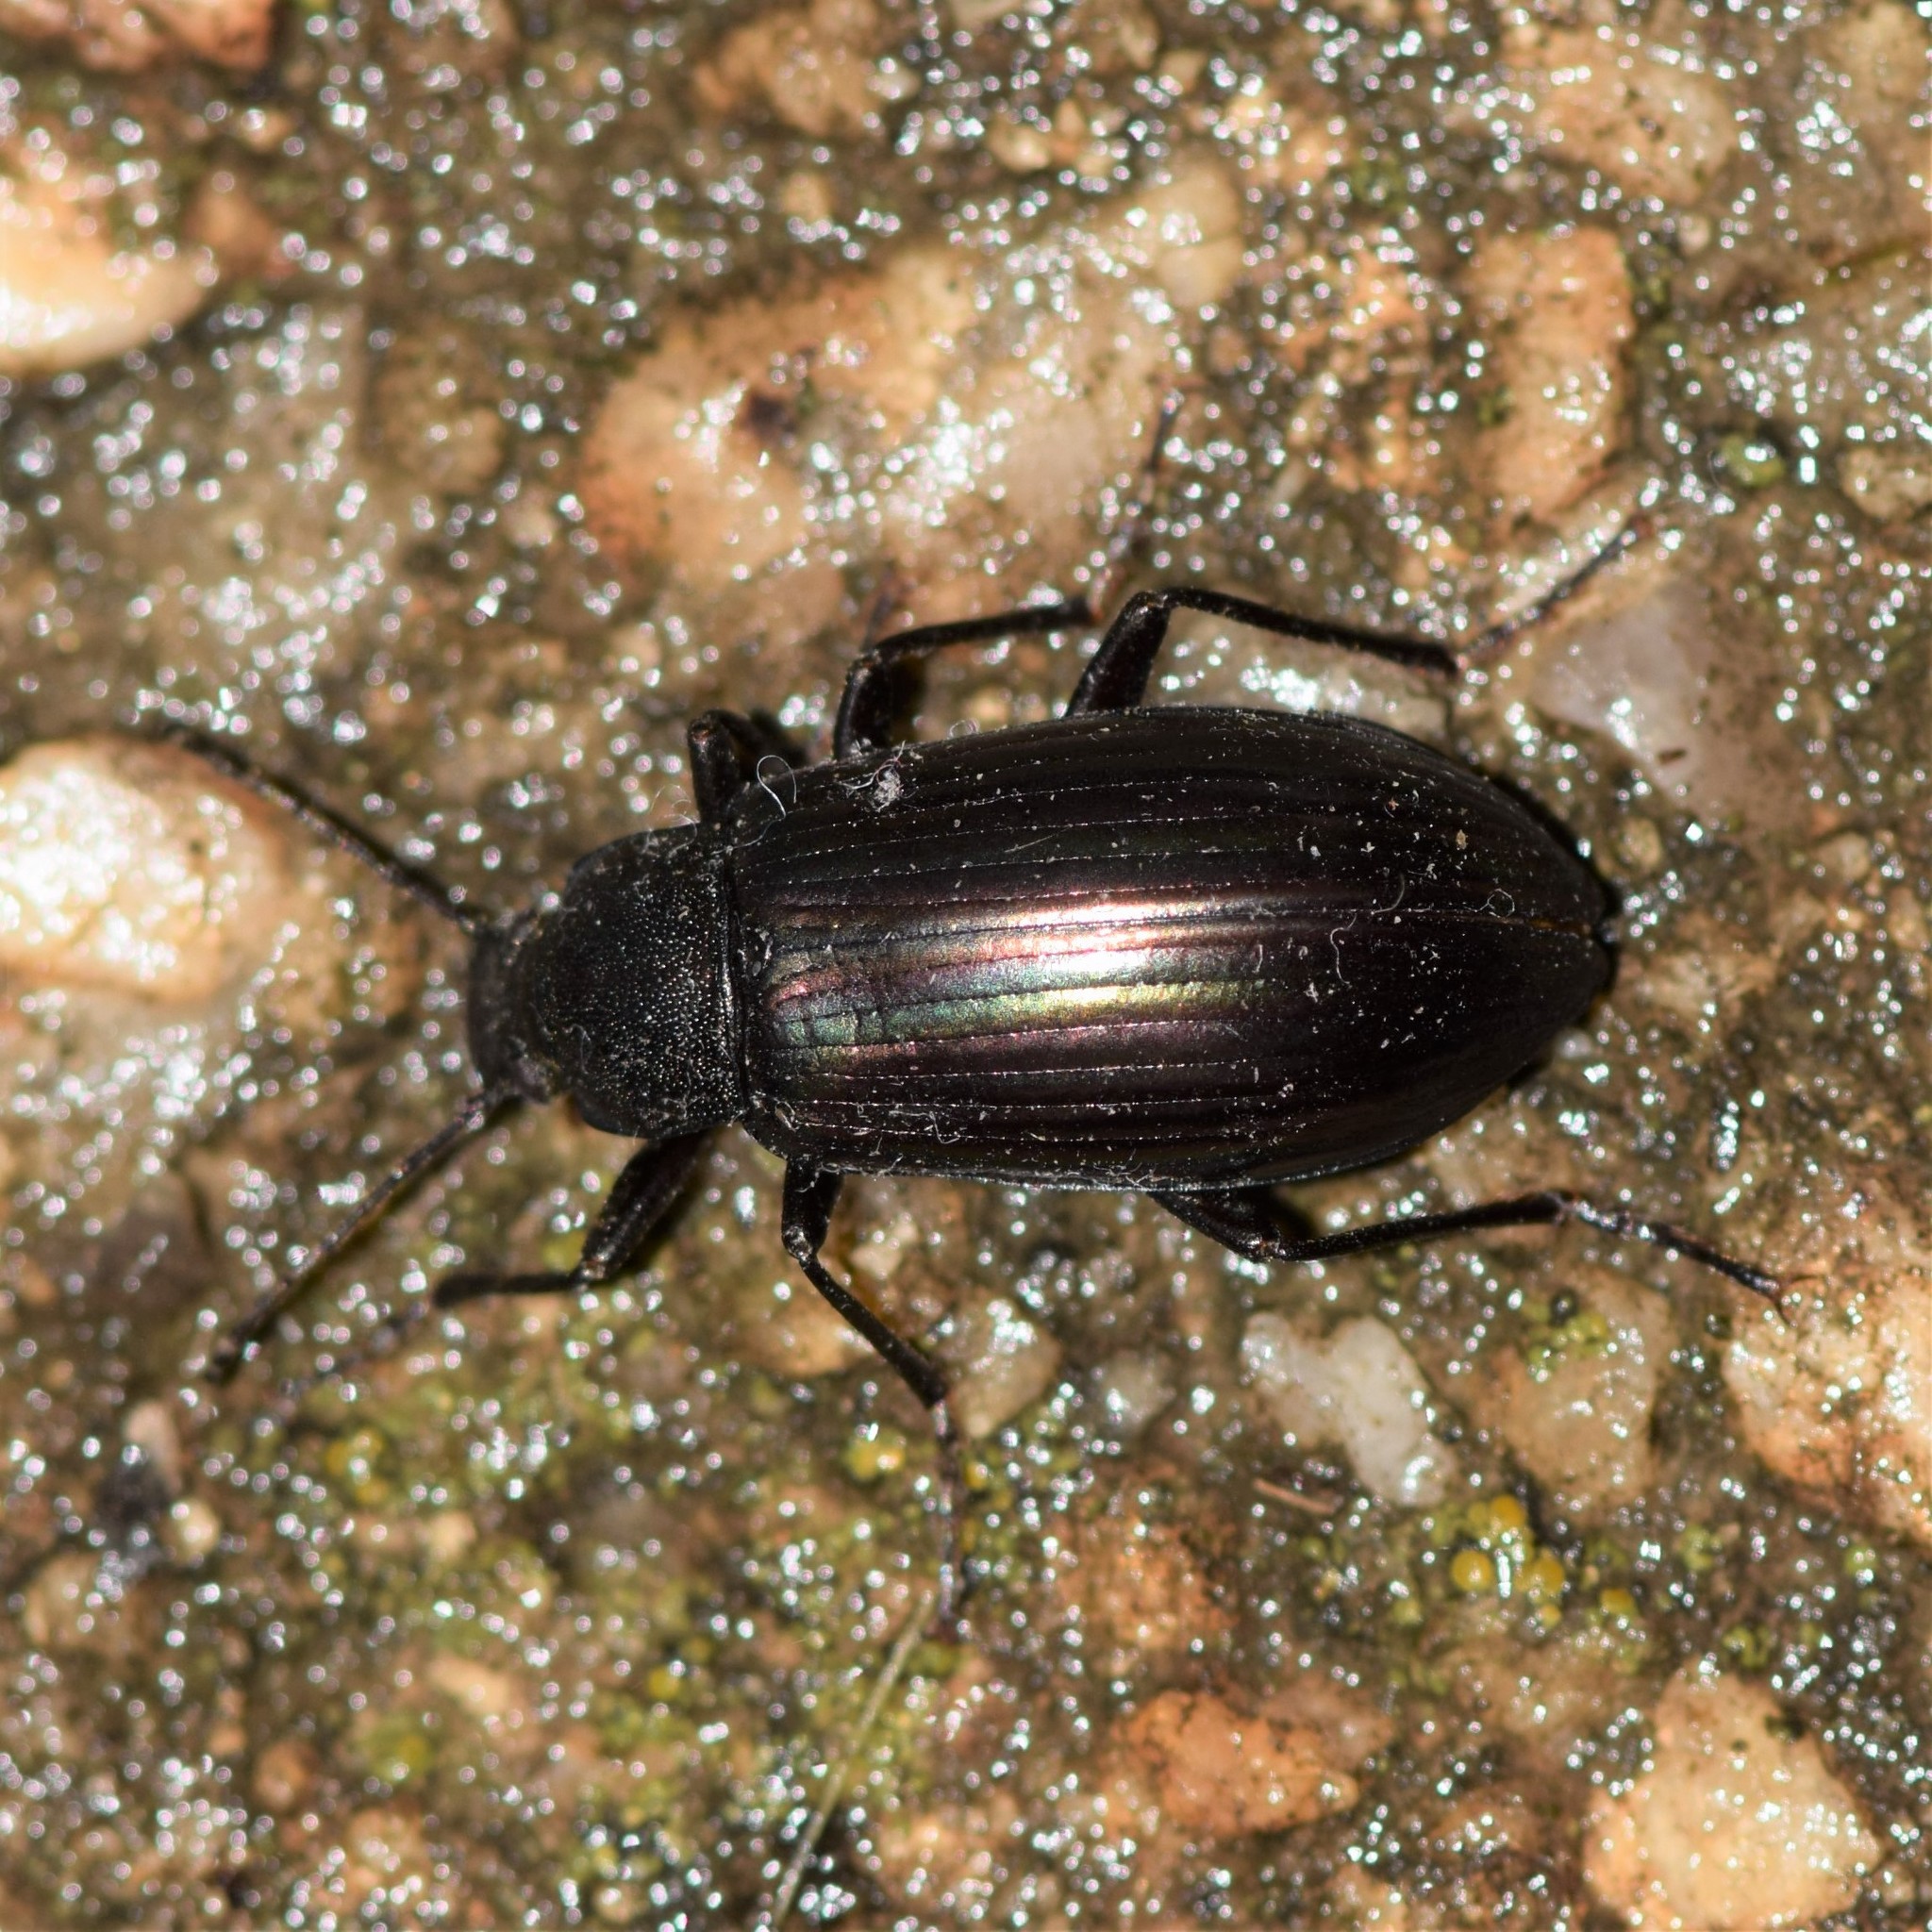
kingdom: Animalia
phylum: Arthropoda
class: Insecta
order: Coleoptera
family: Tenebrionidae
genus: Tarpela
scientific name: Tarpela micans
